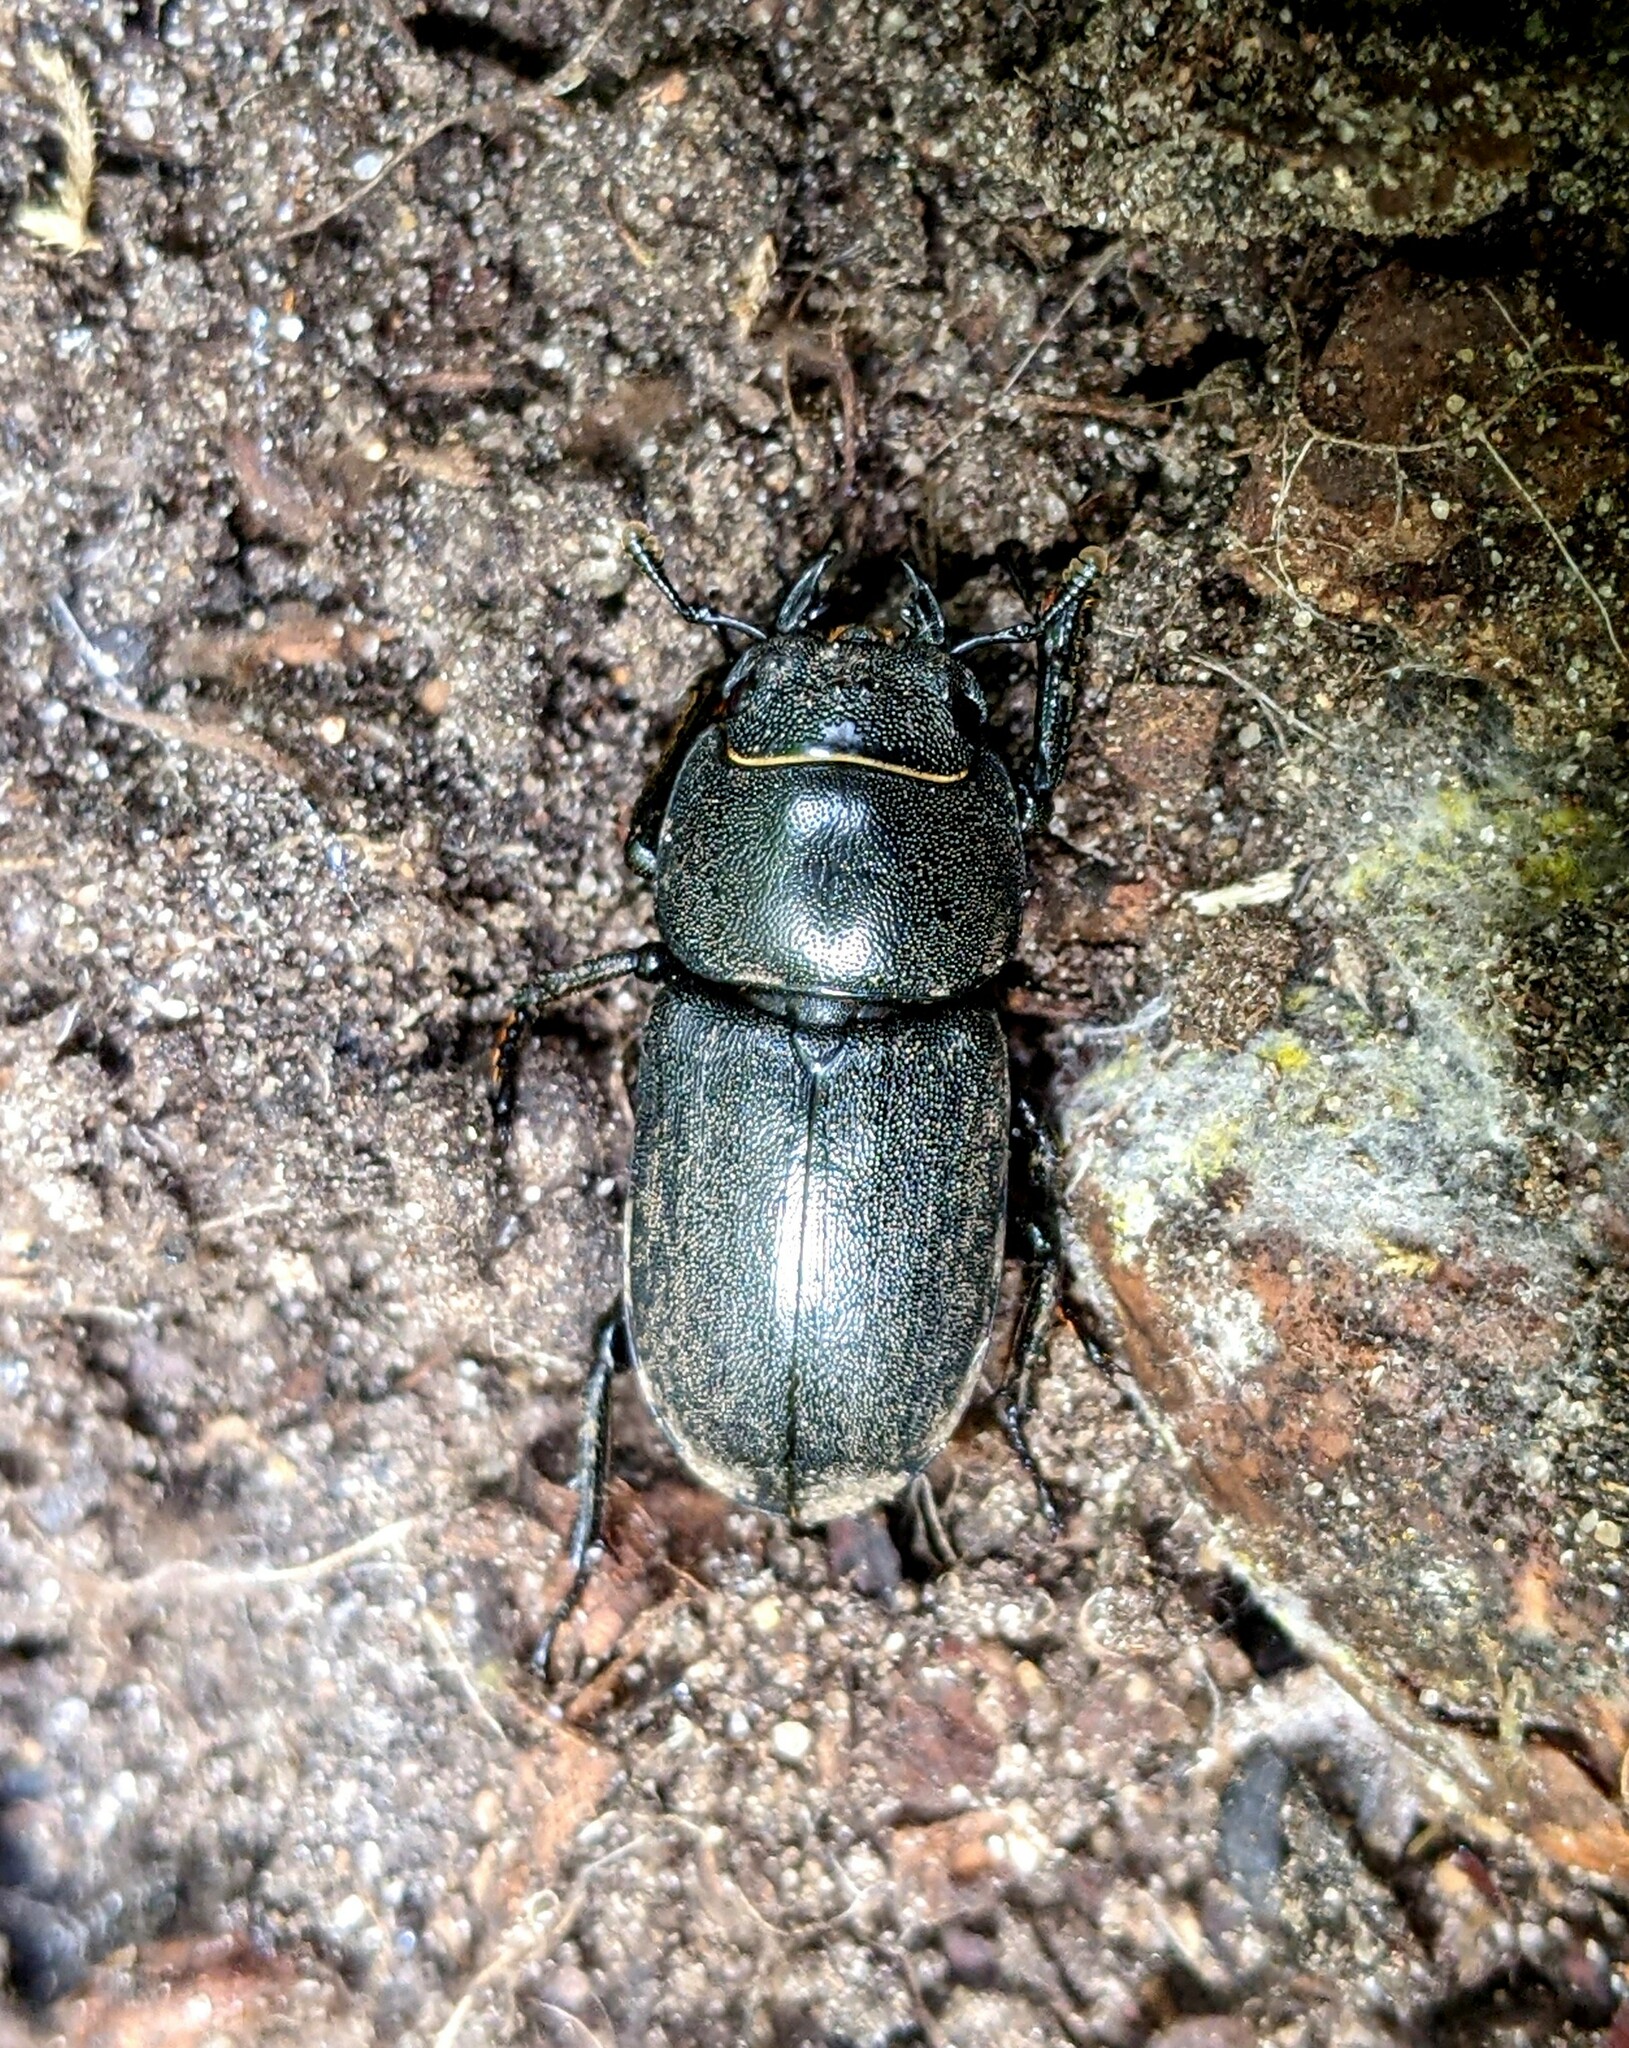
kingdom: Animalia
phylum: Arthropoda
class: Insecta
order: Coleoptera
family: Lucanidae
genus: Dorcus
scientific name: Dorcus parallelipipedus
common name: Lesser stag beetle
